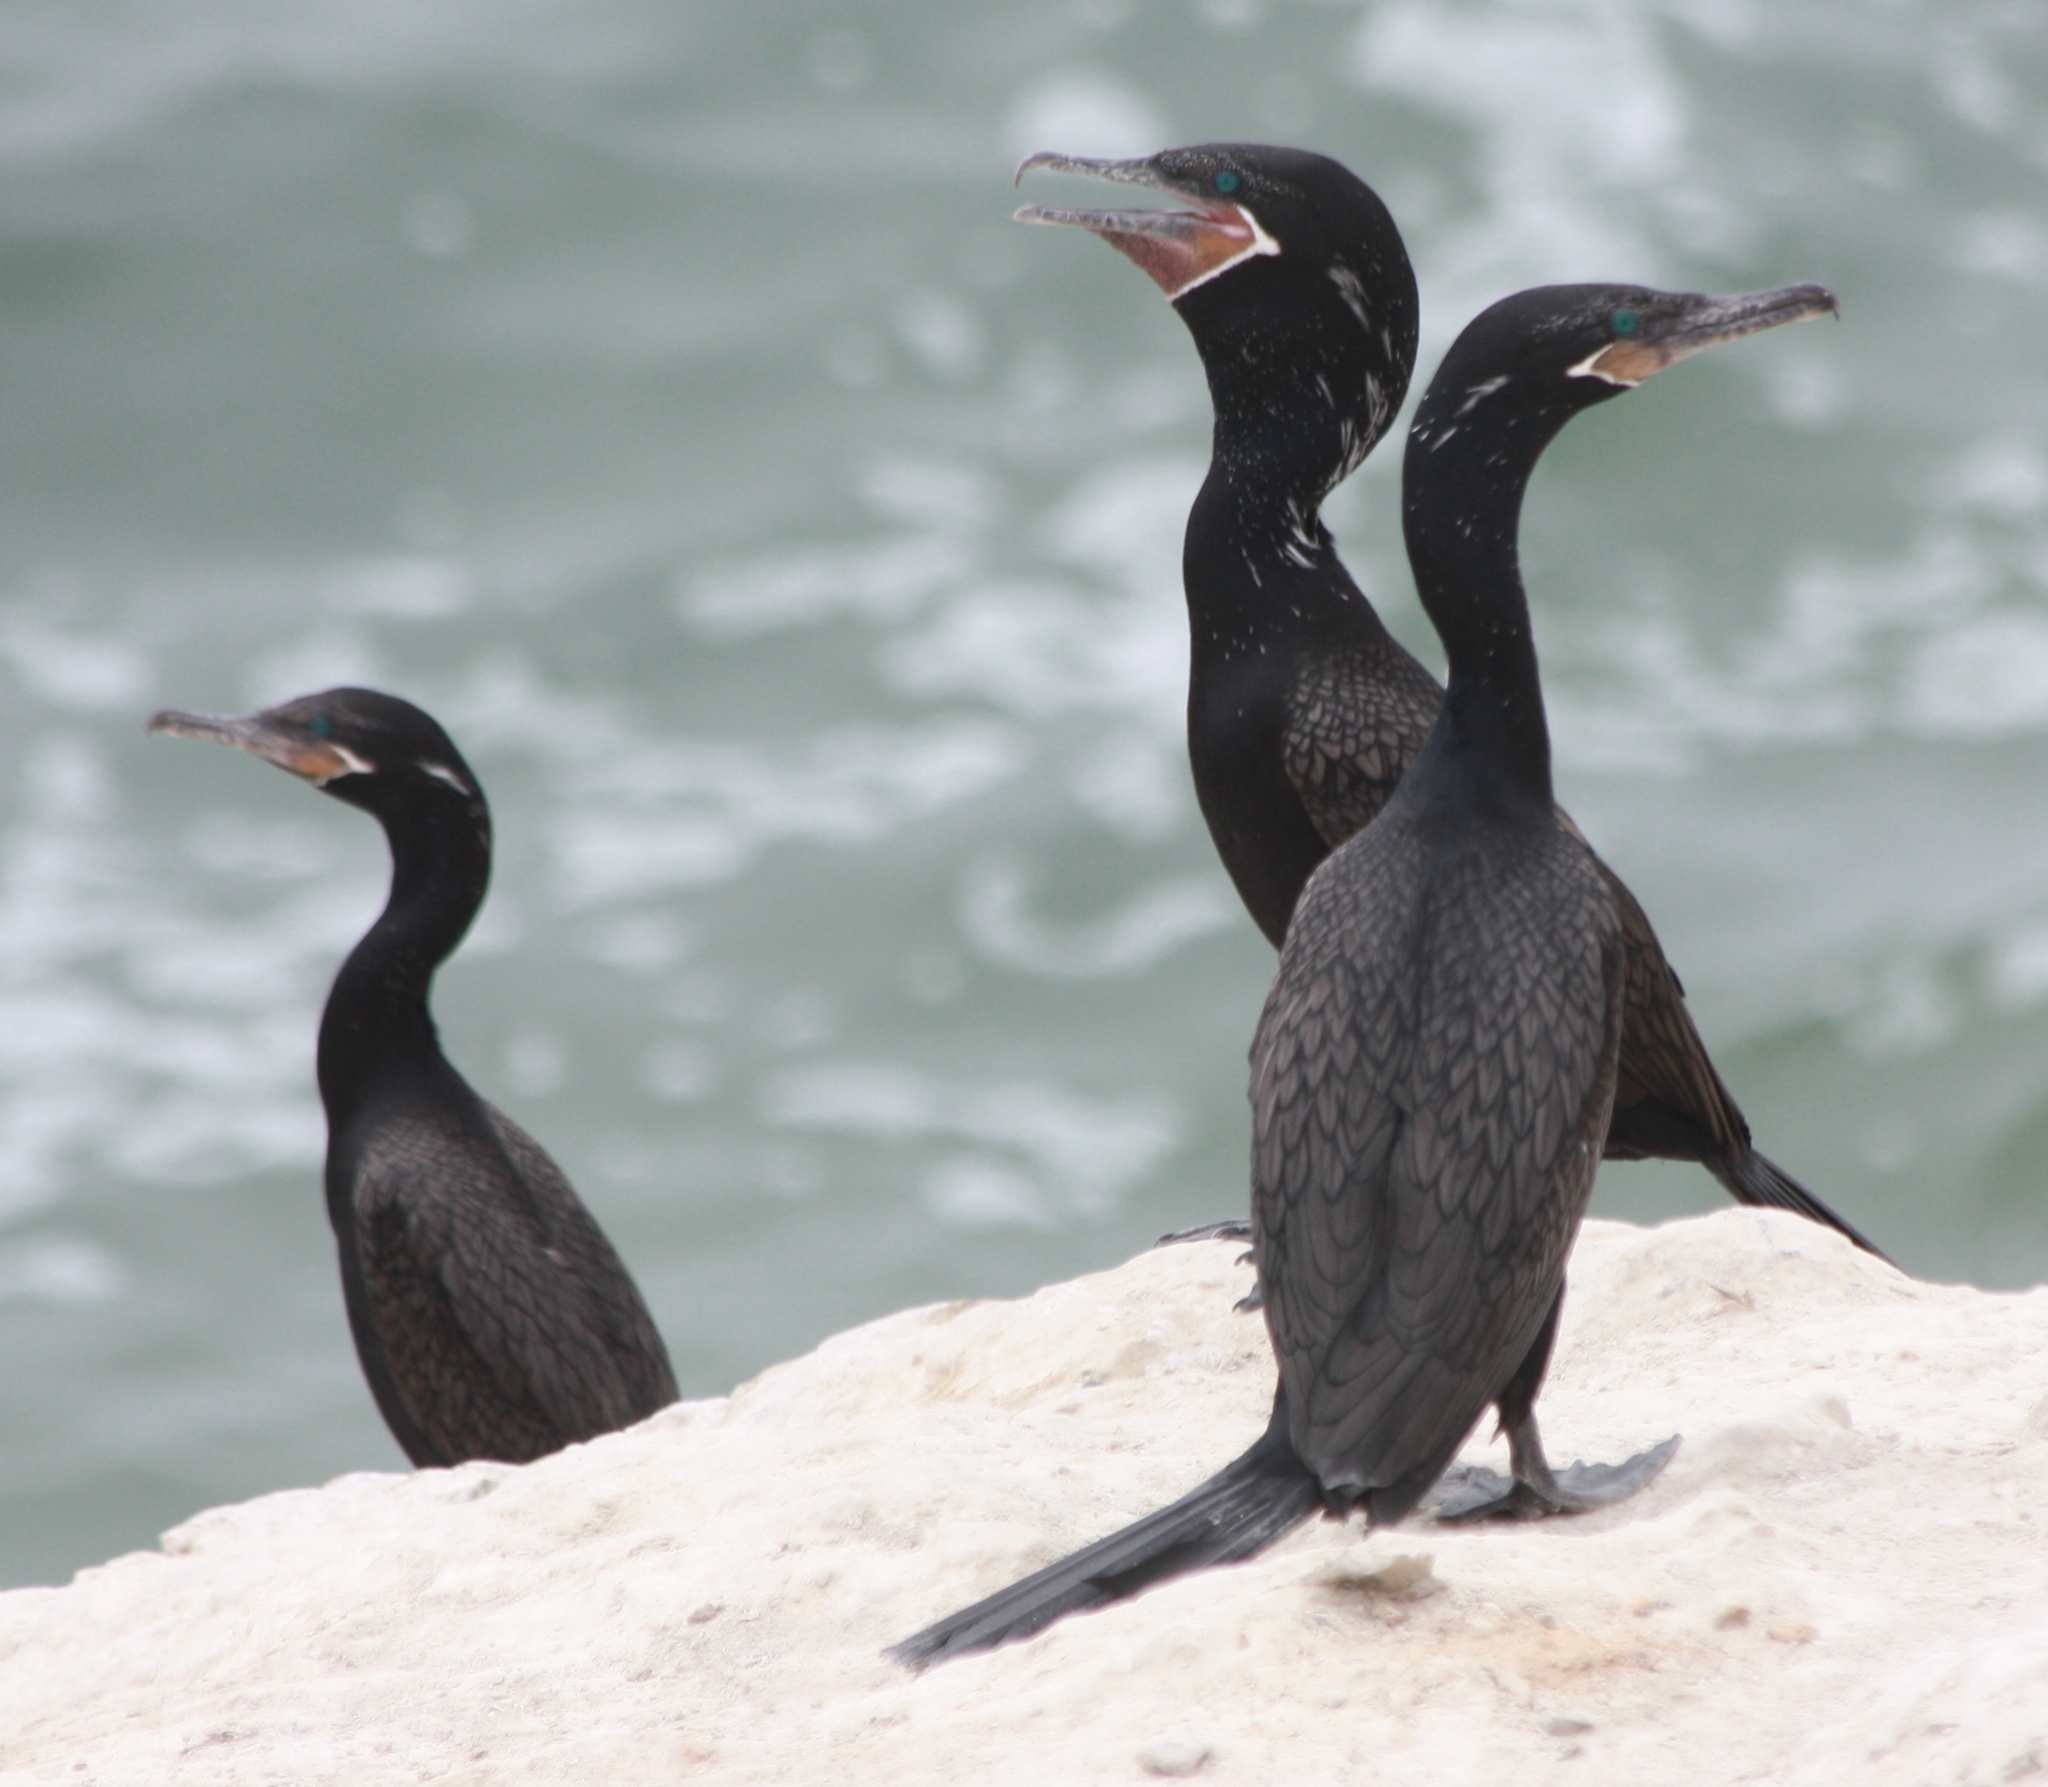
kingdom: Animalia
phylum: Chordata
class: Aves
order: Suliformes
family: Phalacrocoracidae
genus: Phalacrocorax
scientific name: Phalacrocorax brasilianus
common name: Neotropic cormorant
